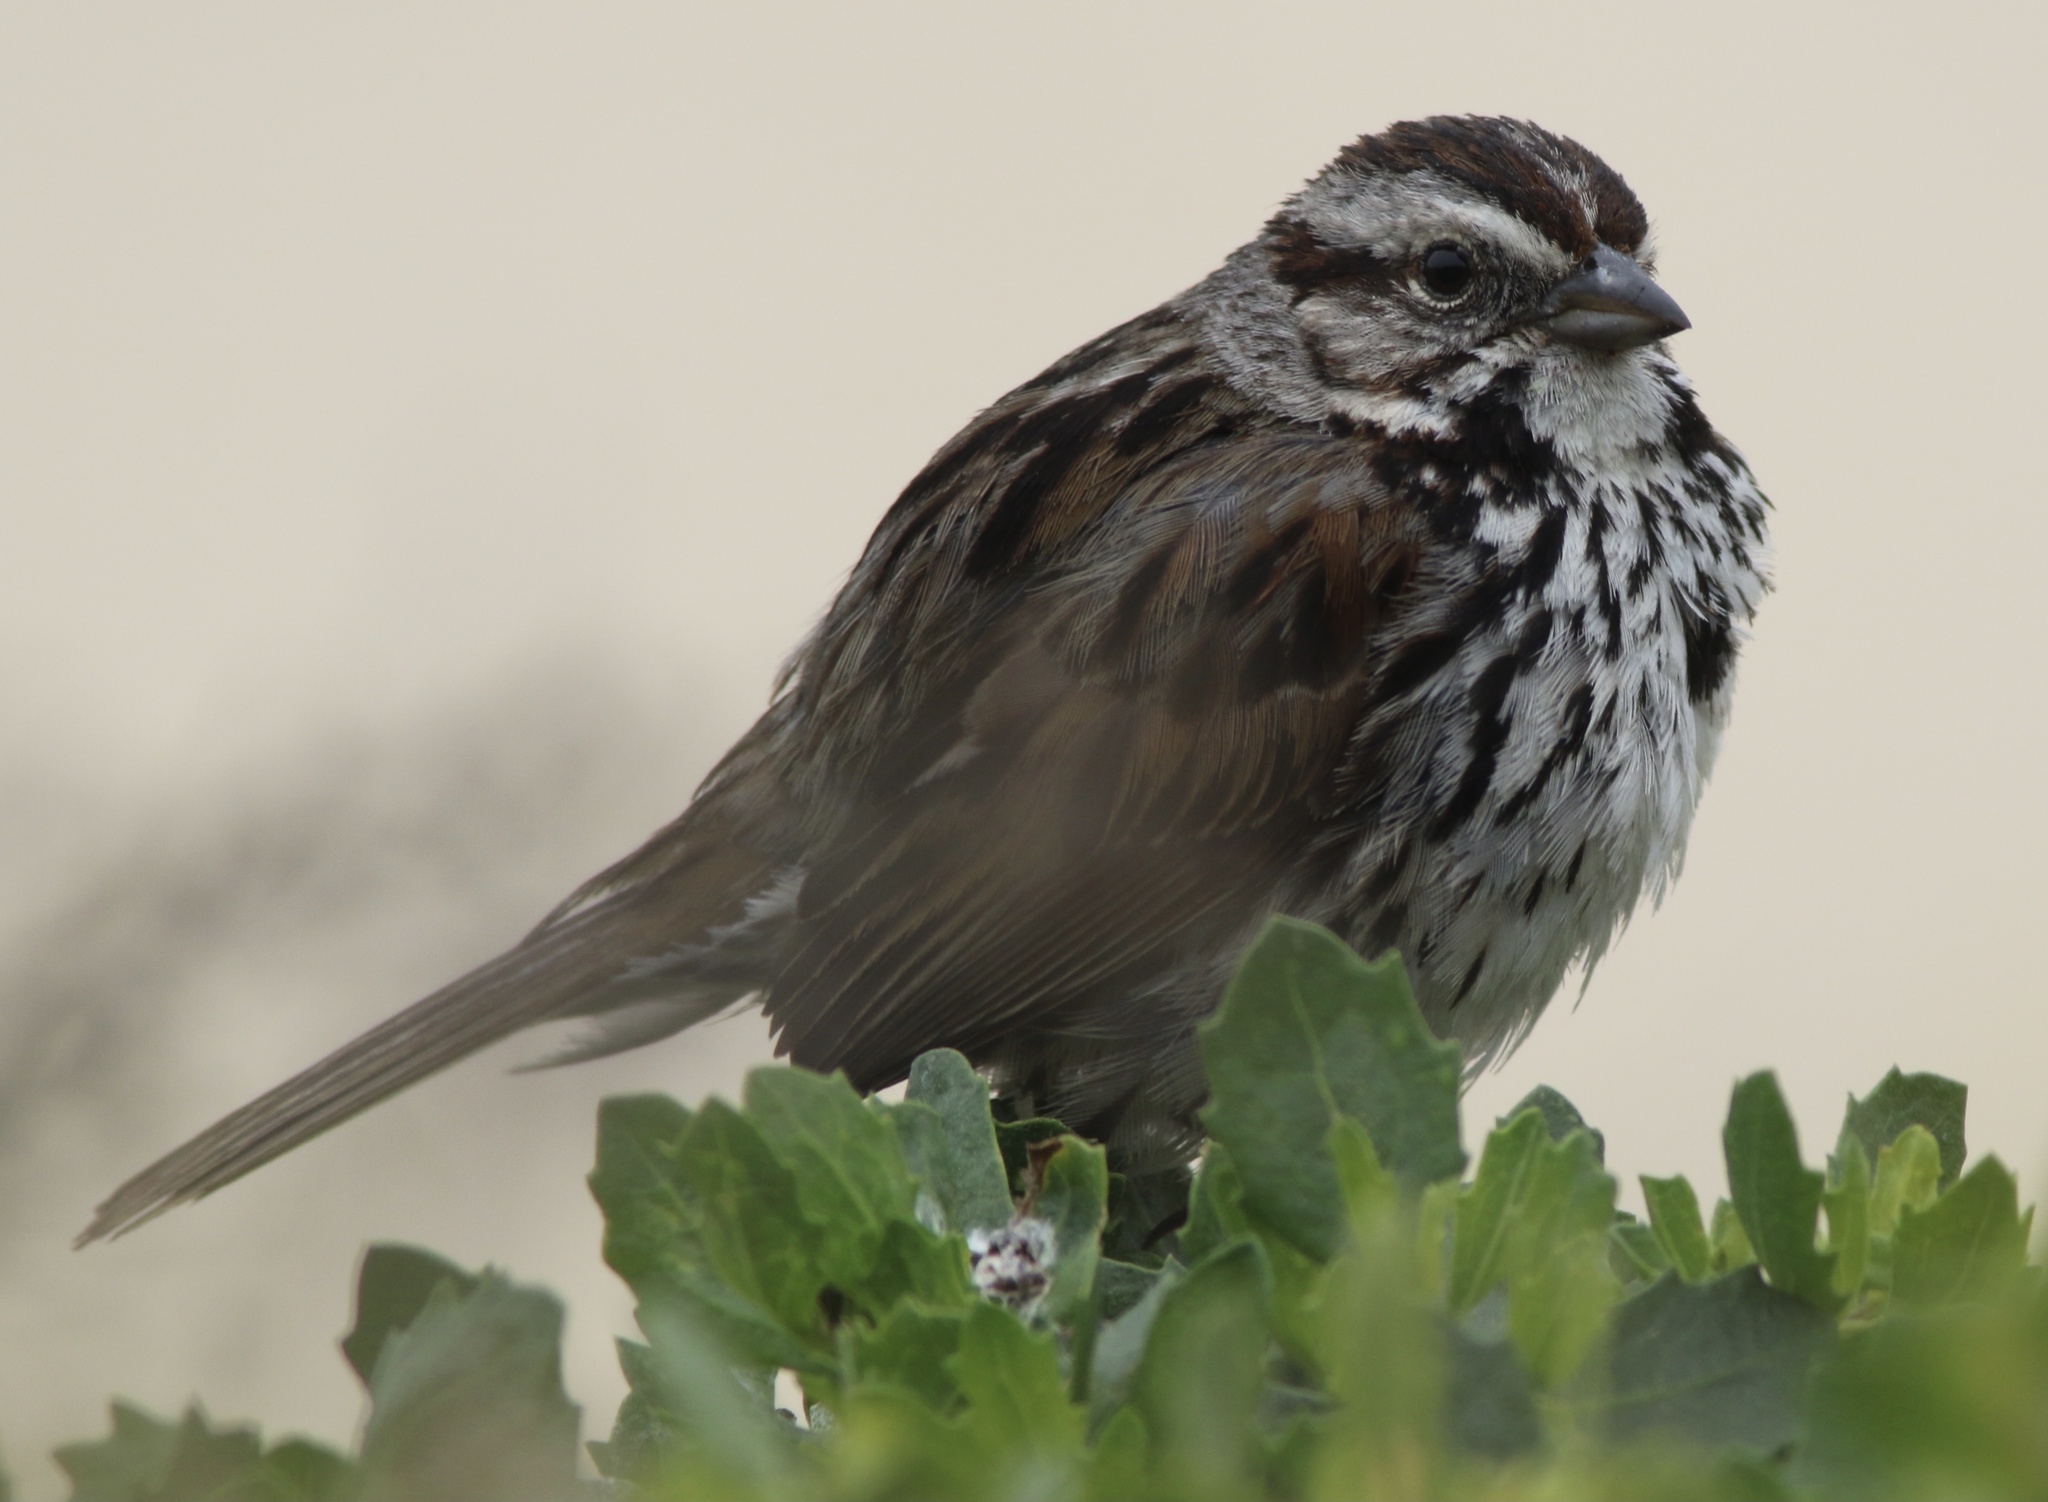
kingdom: Animalia
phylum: Chordata
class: Aves
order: Passeriformes
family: Passerellidae
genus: Melospiza
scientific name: Melospiza melodia
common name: Song sparrow
